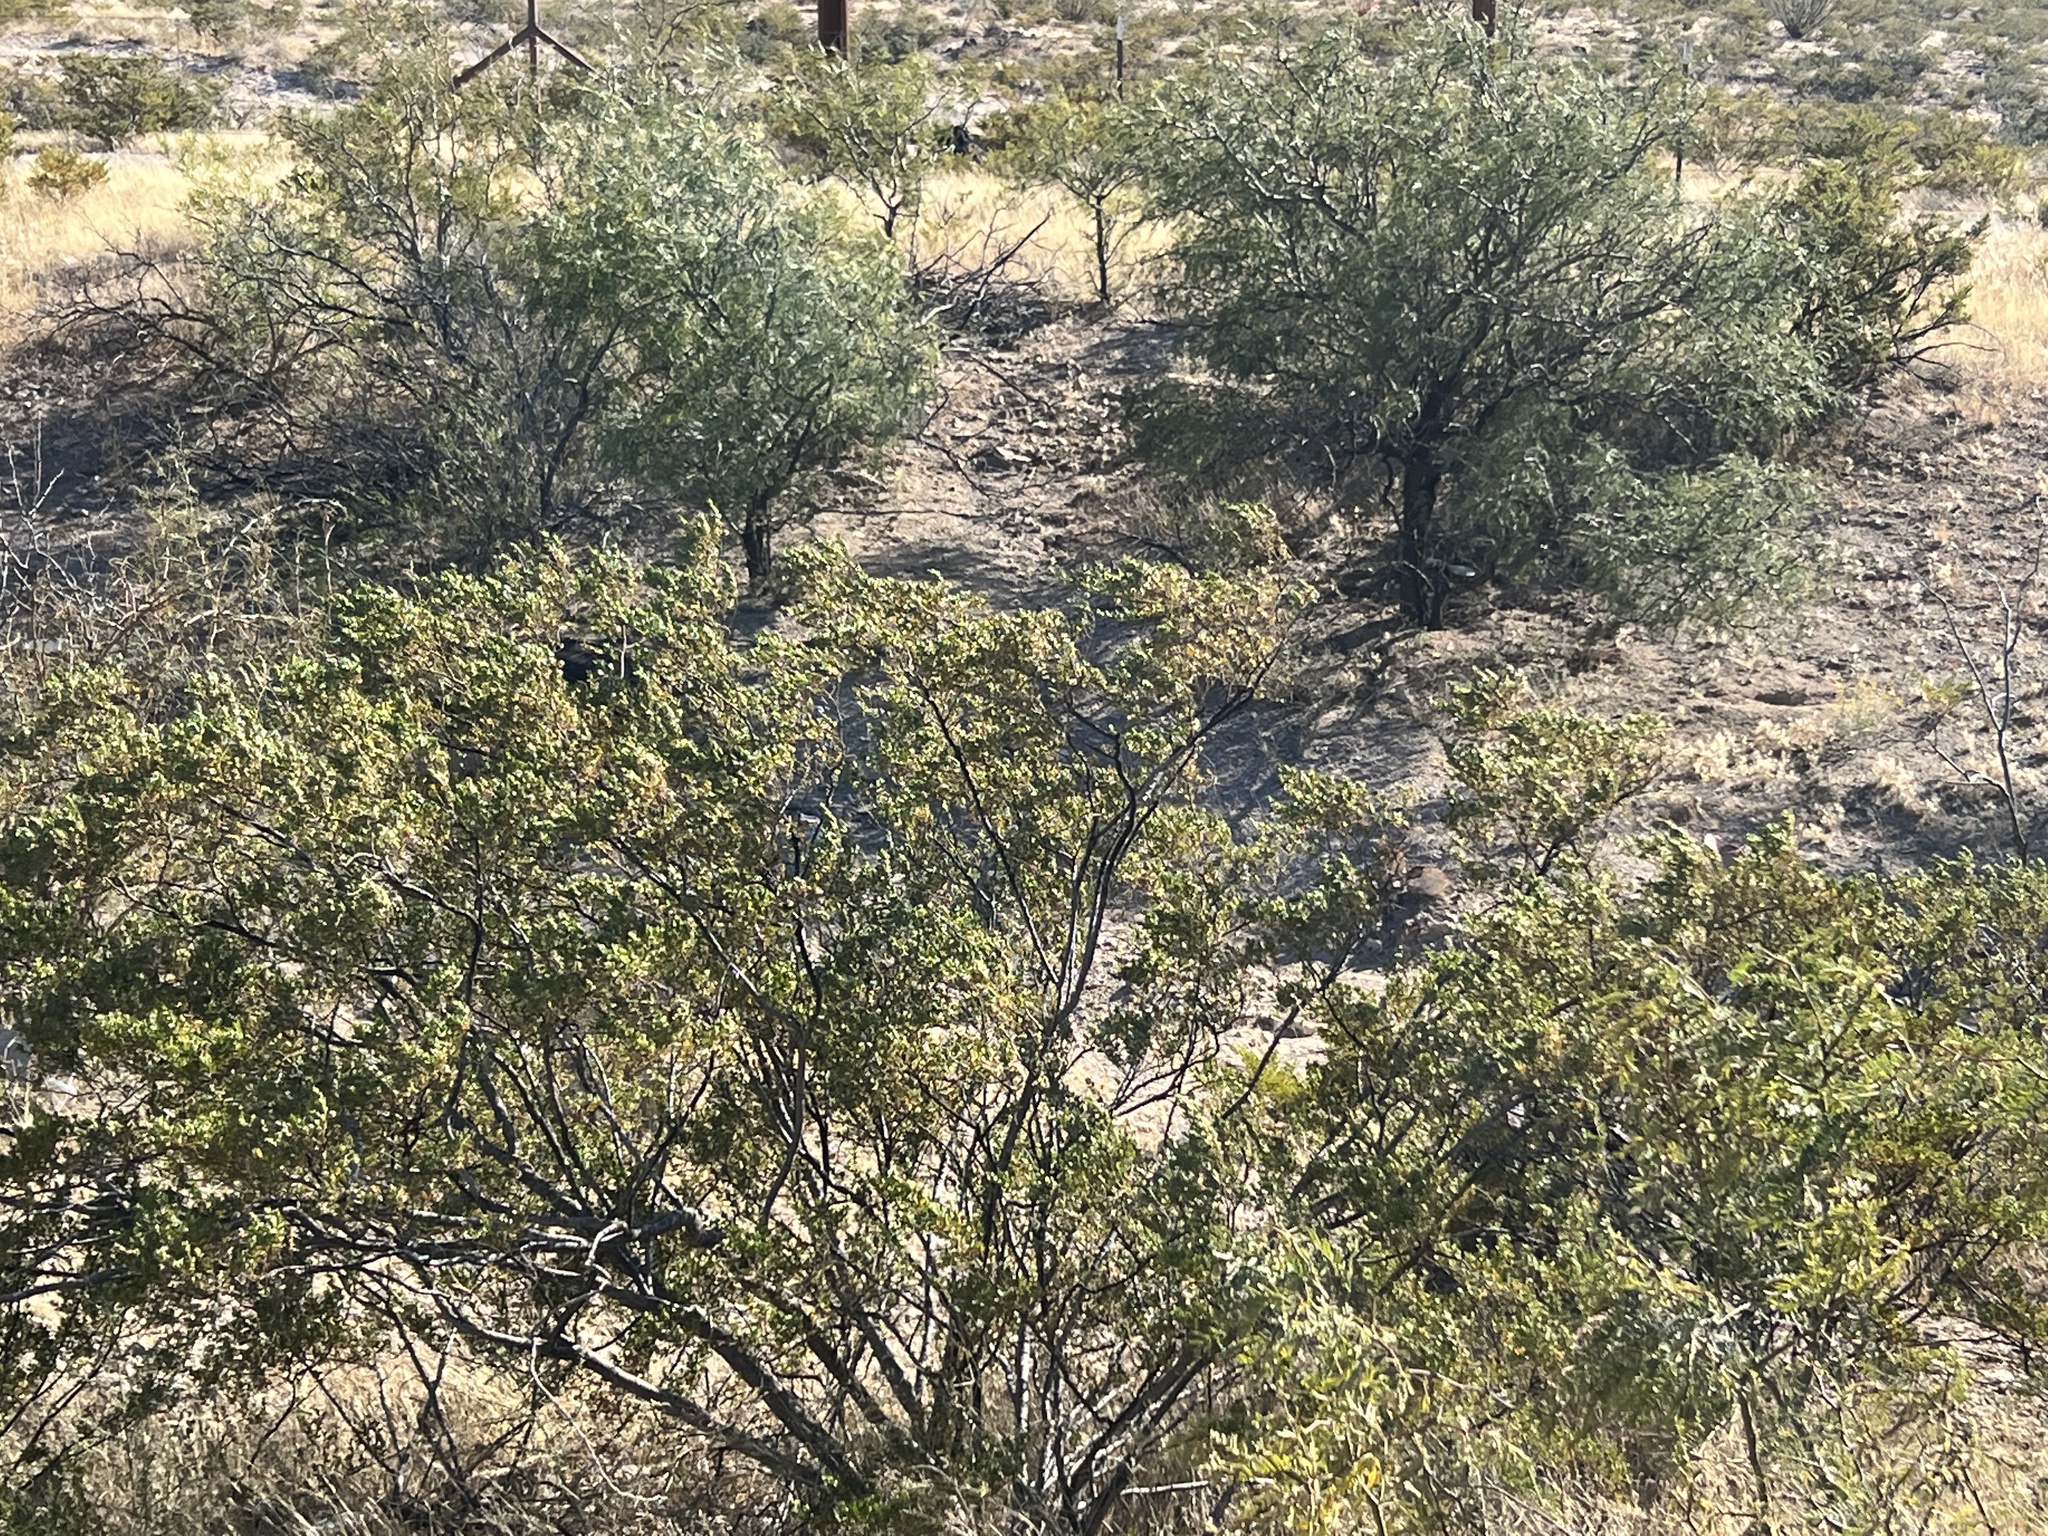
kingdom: Plantae
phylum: Tracheophyta
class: Magnoliopsida
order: Zygophyllales
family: Zygophyllaceae
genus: Larrea
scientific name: Larrea tridentata
